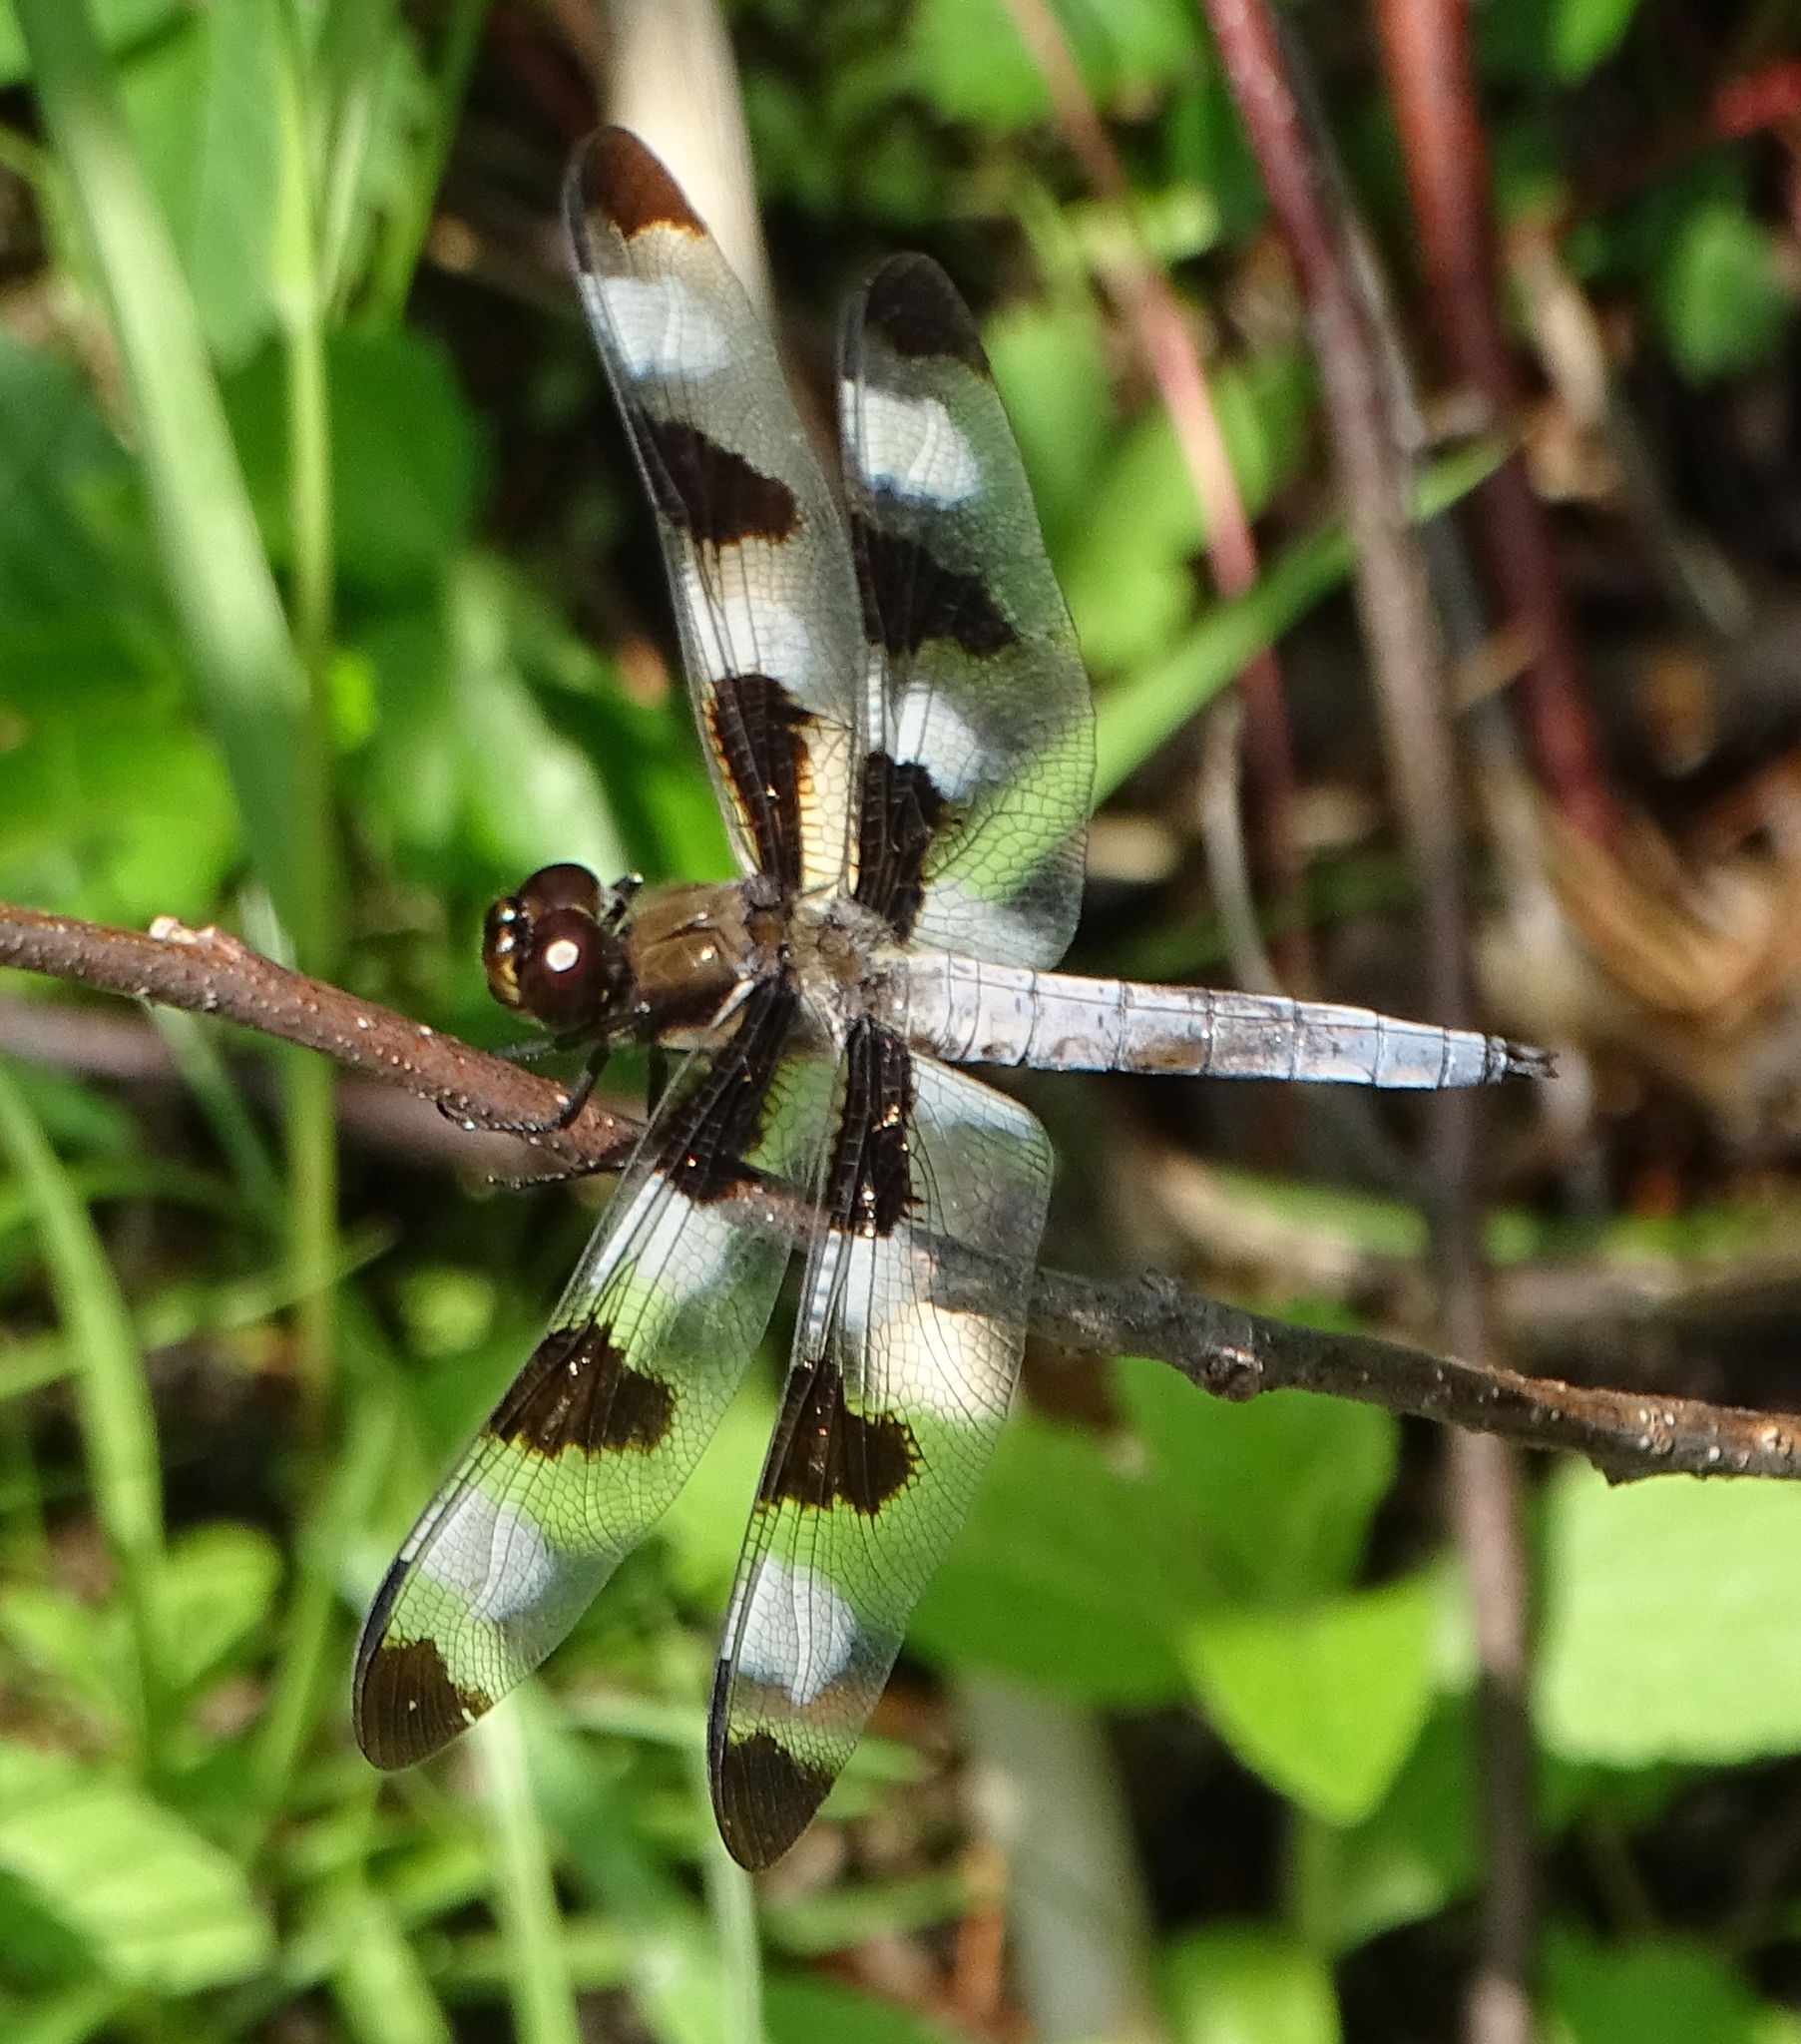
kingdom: Animalia
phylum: Arthropoda
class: Insecta
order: Odonata
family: Libellulidae
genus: Libellula
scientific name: Libellula pulchella
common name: Twelve-spotted skimmer
